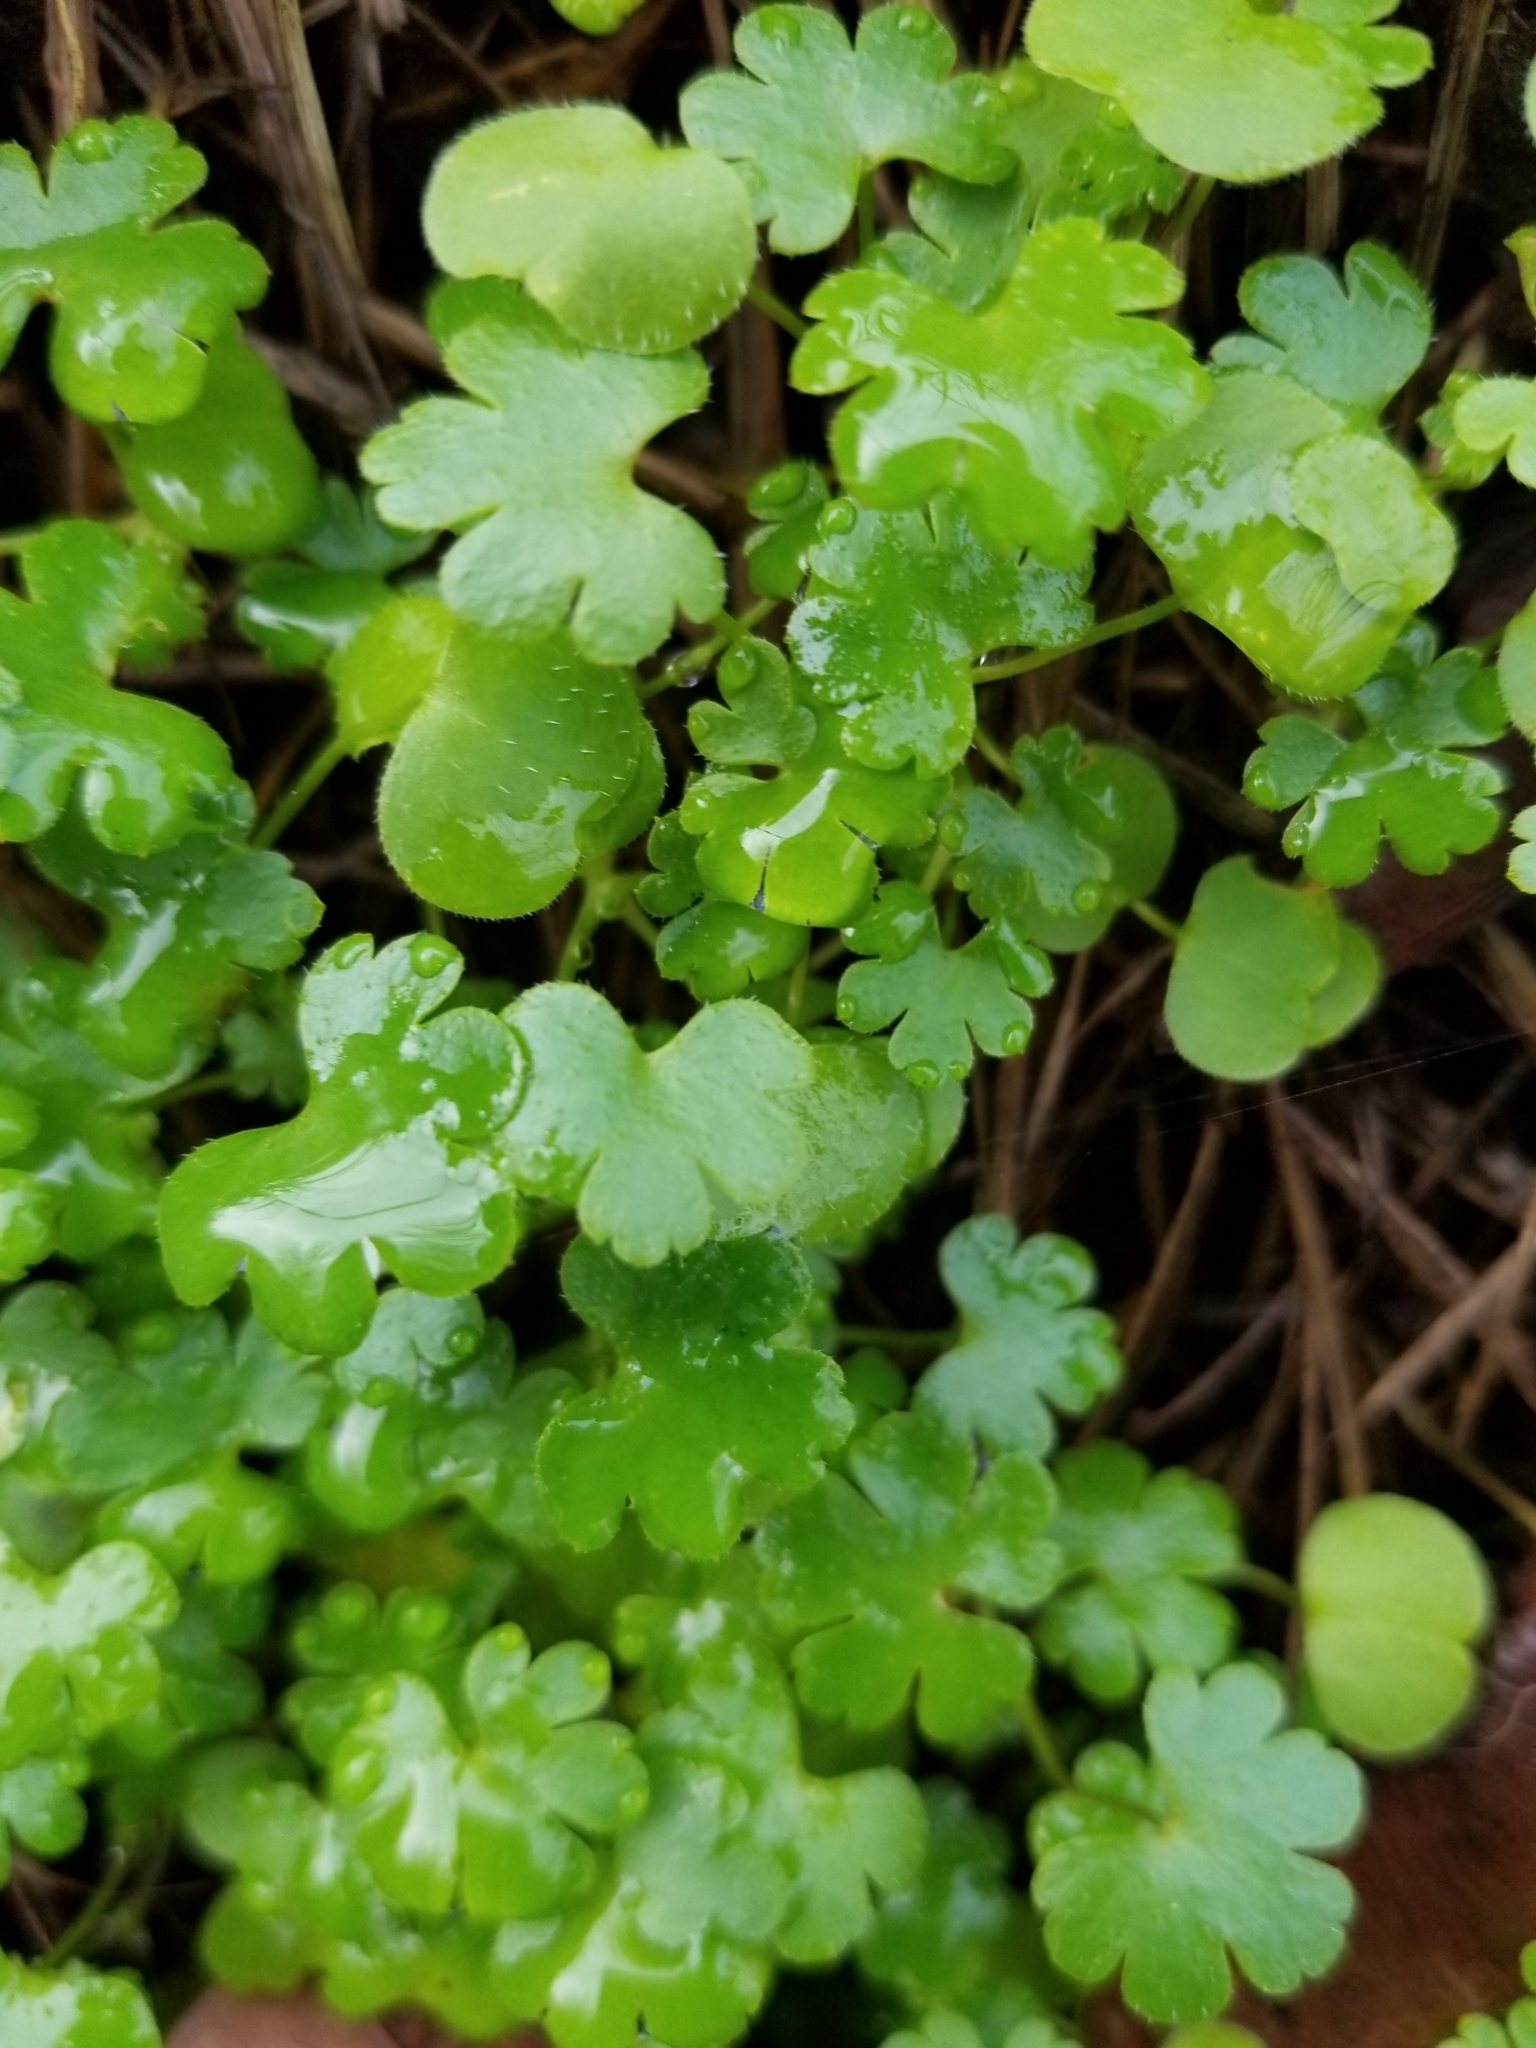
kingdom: Plantae
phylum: Tracheophyta
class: Magnoliopsida
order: Geraniales
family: Geraniaceae
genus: Geranium
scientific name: Geranium lucidum
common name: Shining crane's-bill
